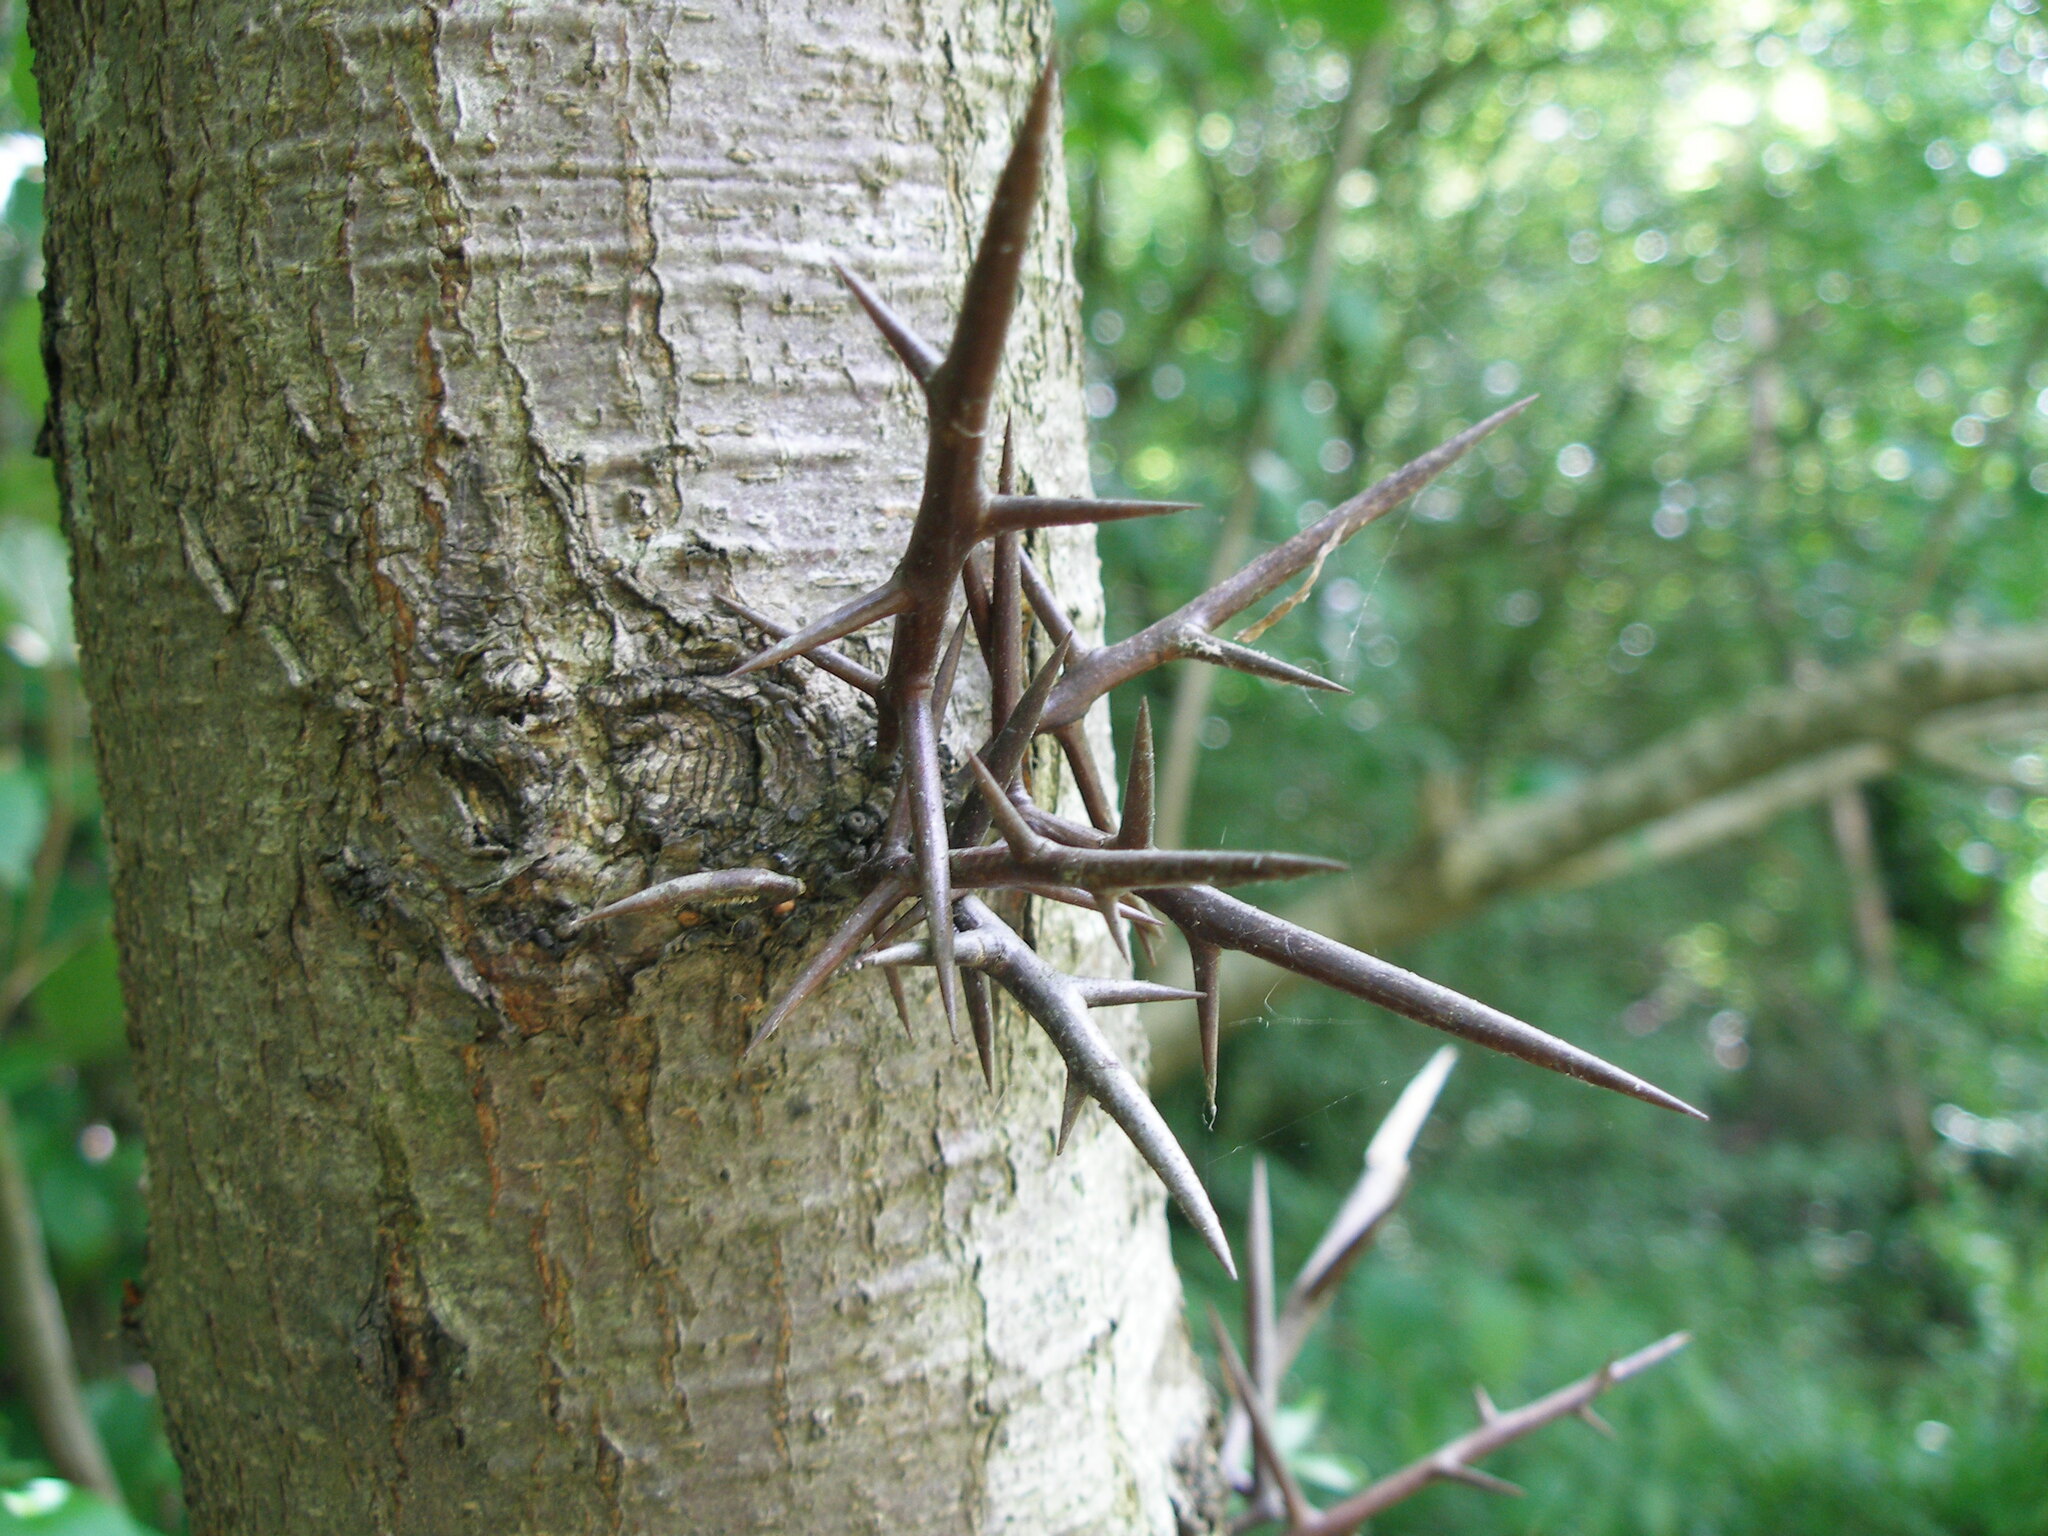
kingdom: Plantae
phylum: Tracheophyta
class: Magnoliopsida
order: Fabales
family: Fabaceae
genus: Gleditsia
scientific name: Gleditsia triacanthos
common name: Common honeylocust
